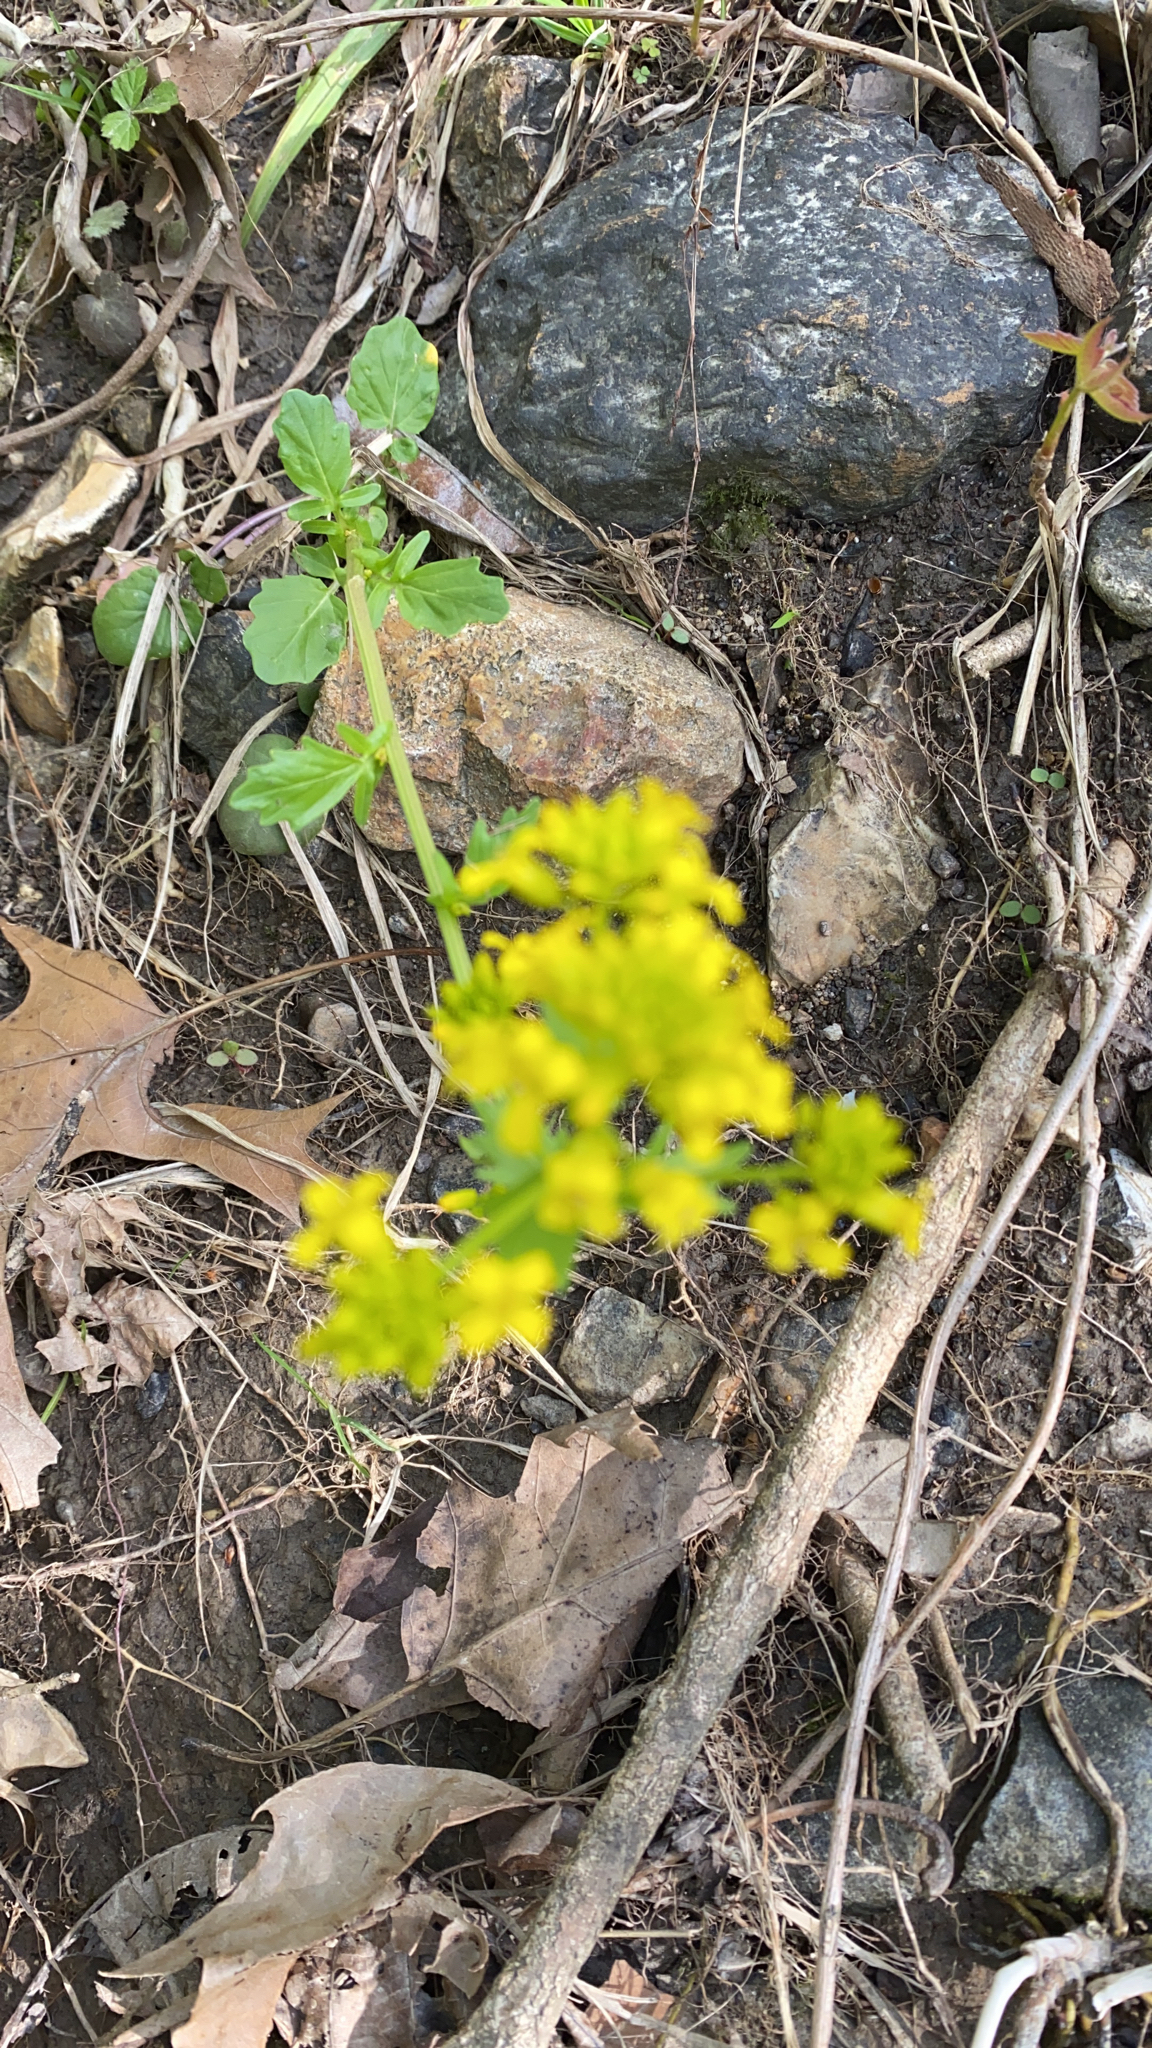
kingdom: Plantae
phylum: Tracheophyta
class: Magnoliopsida
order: Brassicales
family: Brassicaceae
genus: Barbarea
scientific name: Barbarea vulgaris
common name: Cressy-greens
